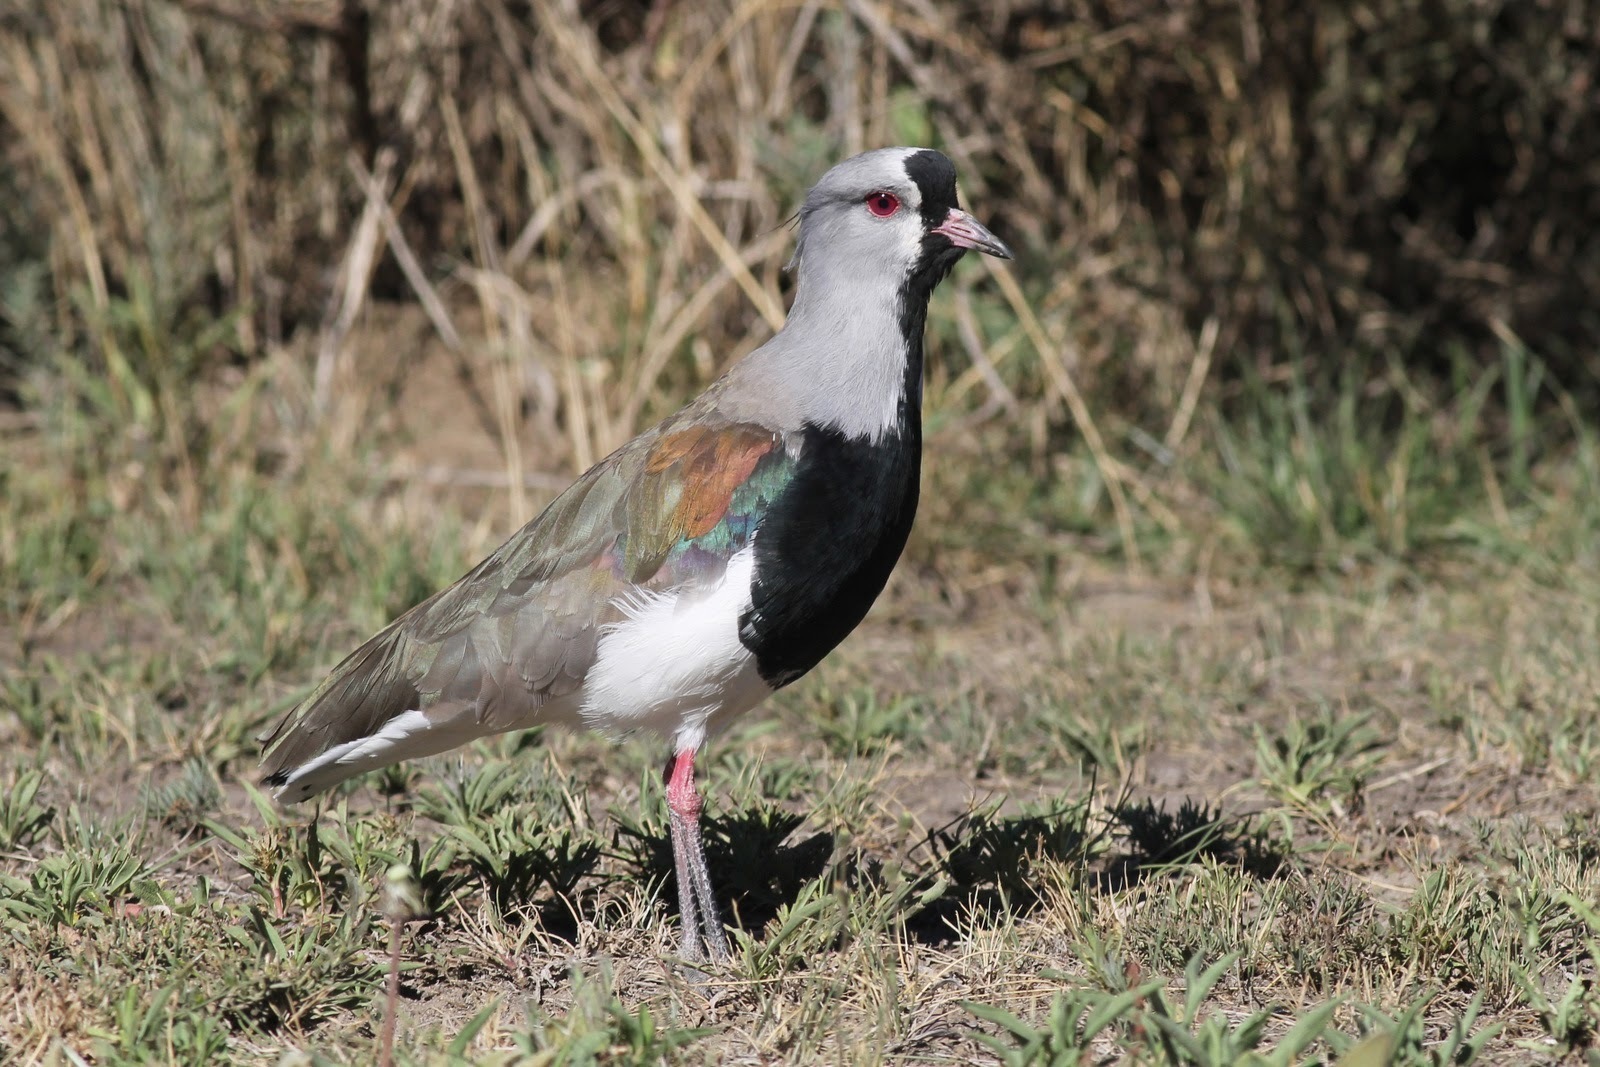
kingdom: Animalia
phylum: Chordata
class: Aves
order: Charadriiformes
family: Charadriidae
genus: Vanellus
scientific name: Vanellus chilensis
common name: Southern lapwing
